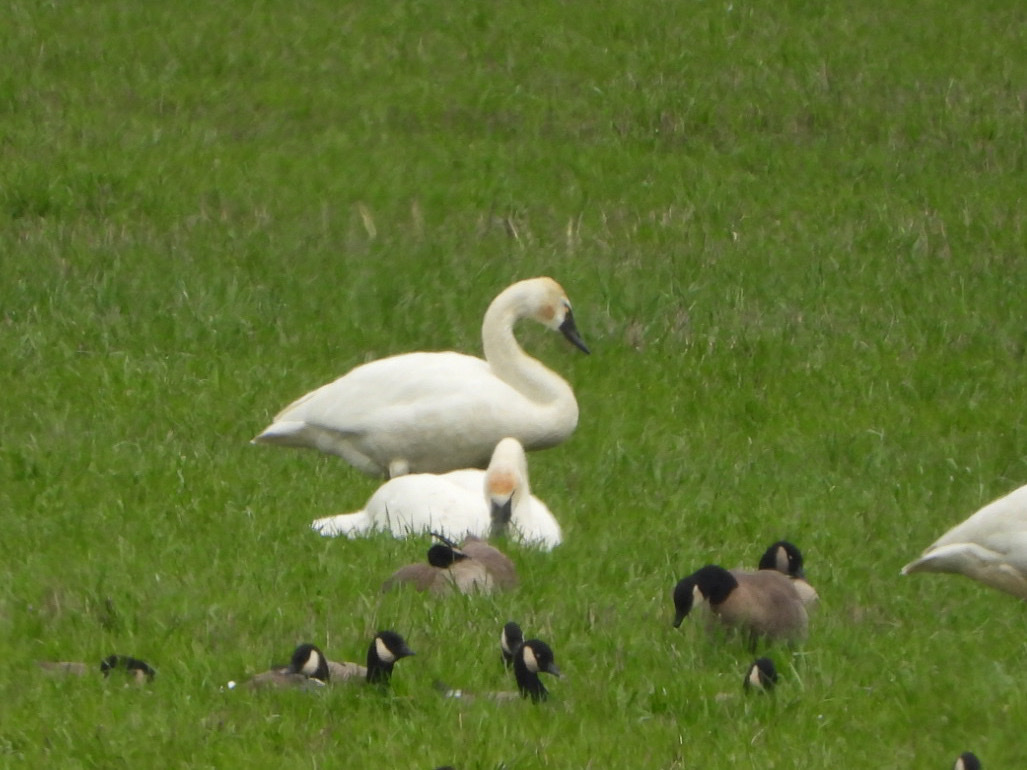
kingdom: Animalia
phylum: Chordata
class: Aves
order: Anseriformes
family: Anatidae
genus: Cygnus
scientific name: Cygnus columbianus
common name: Tundra swan
